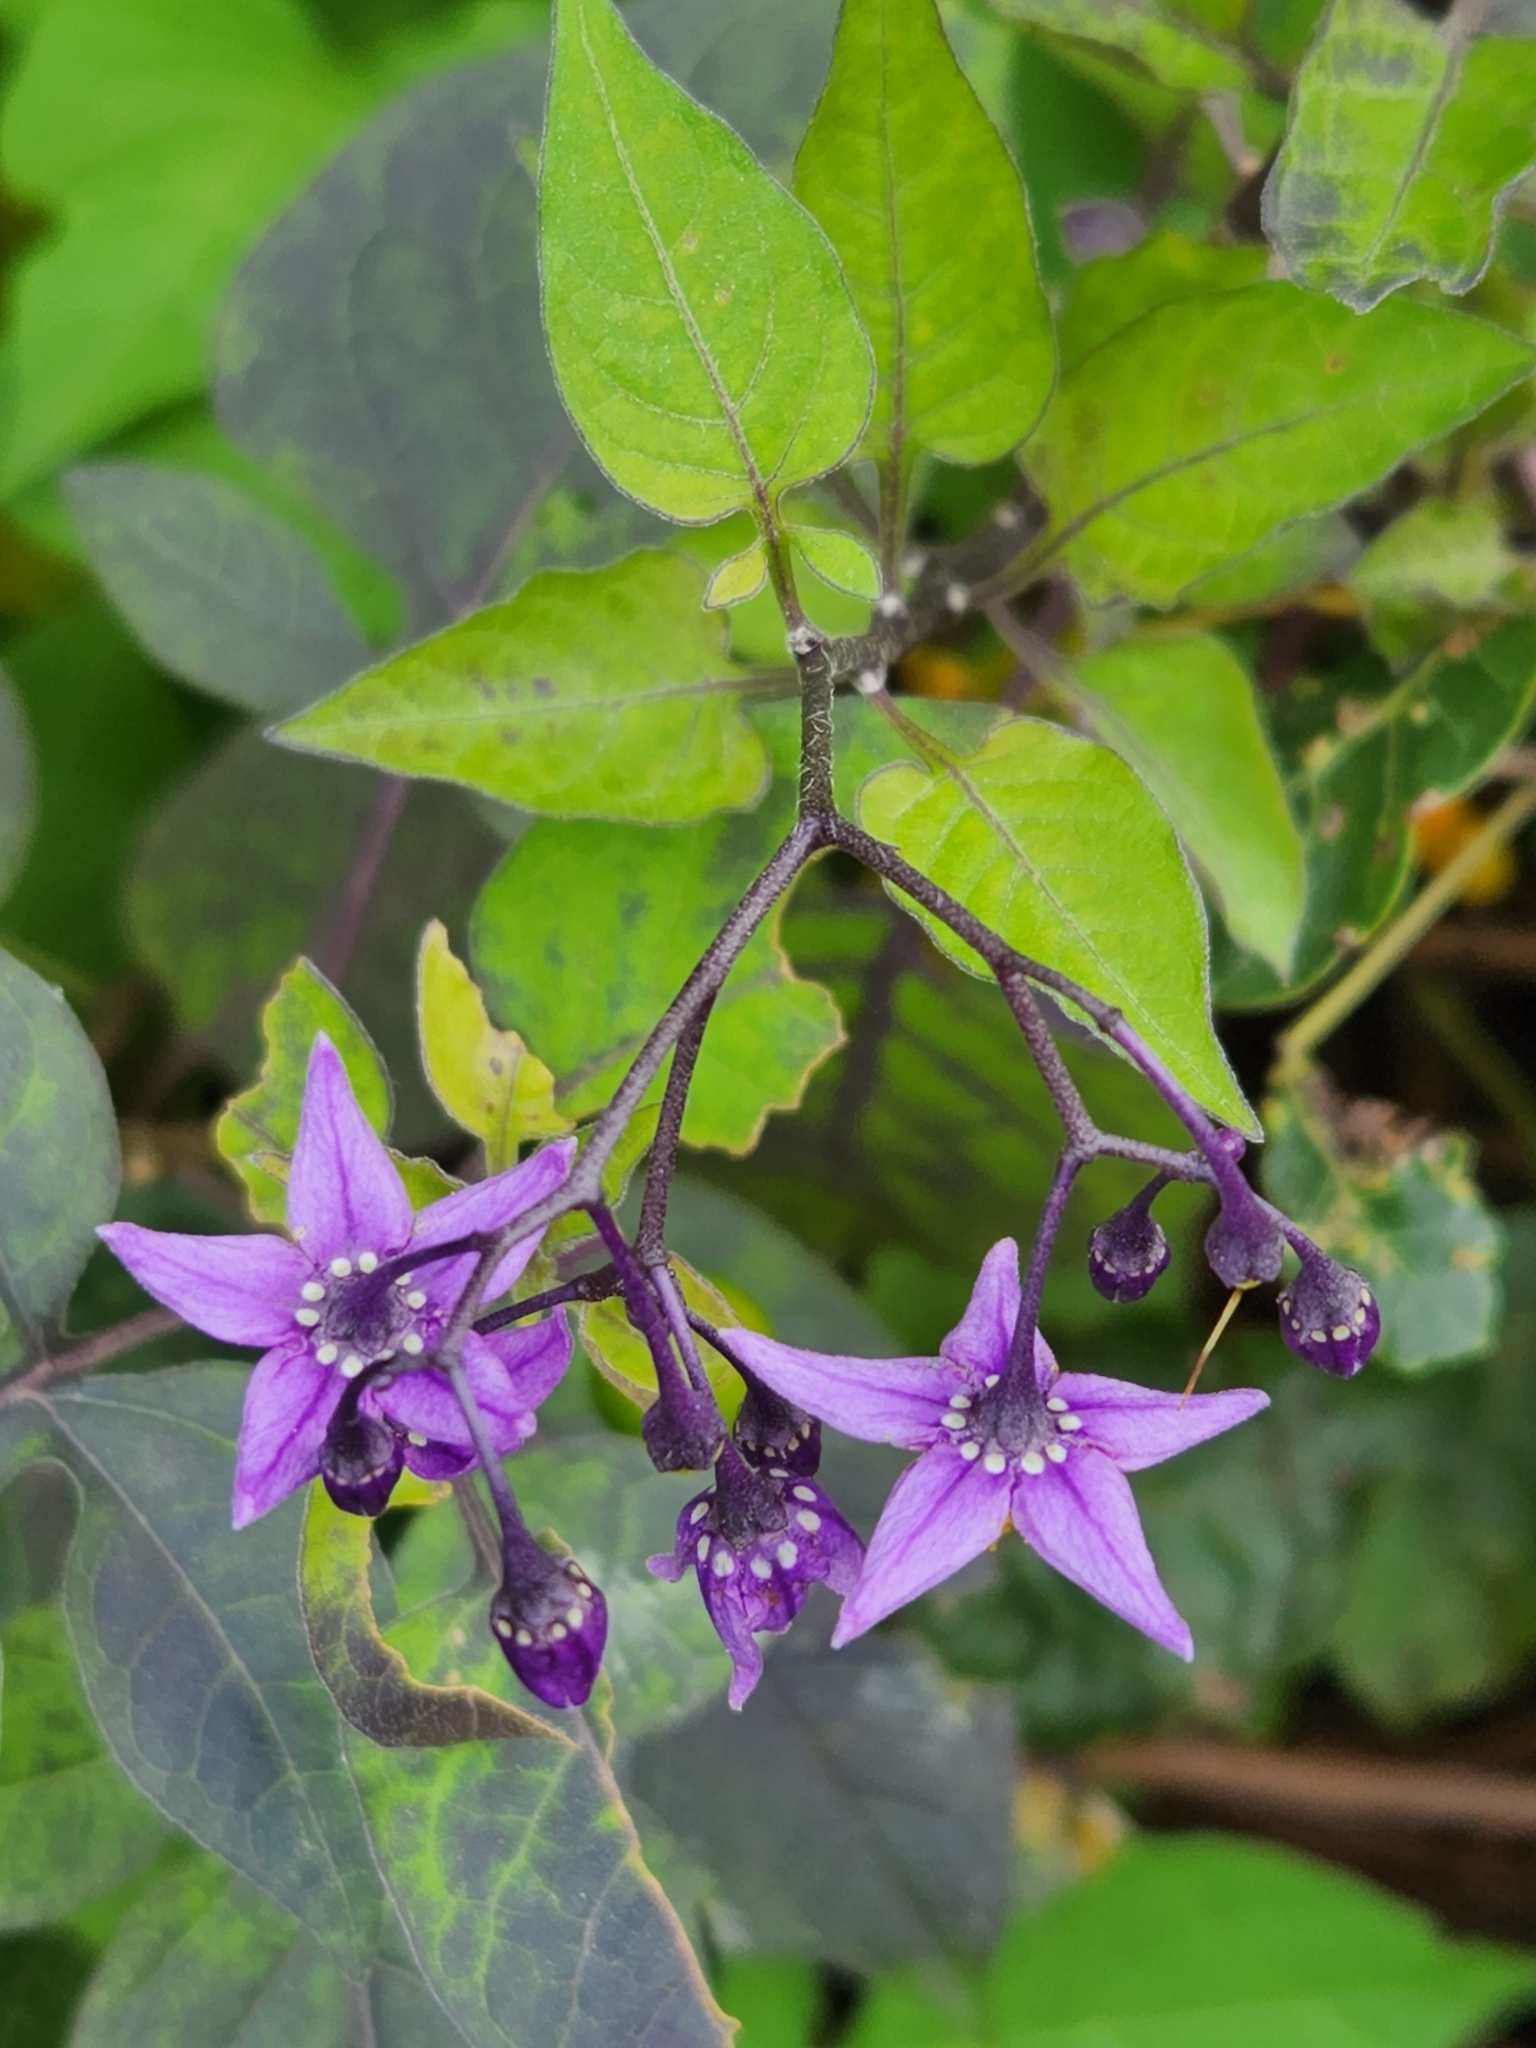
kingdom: Plantae
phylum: Tracheophyta
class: Magnoliopsida
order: Solanales
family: Solanaceae
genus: Solanum
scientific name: Solanum dulcamara
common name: Climbing nightshade
